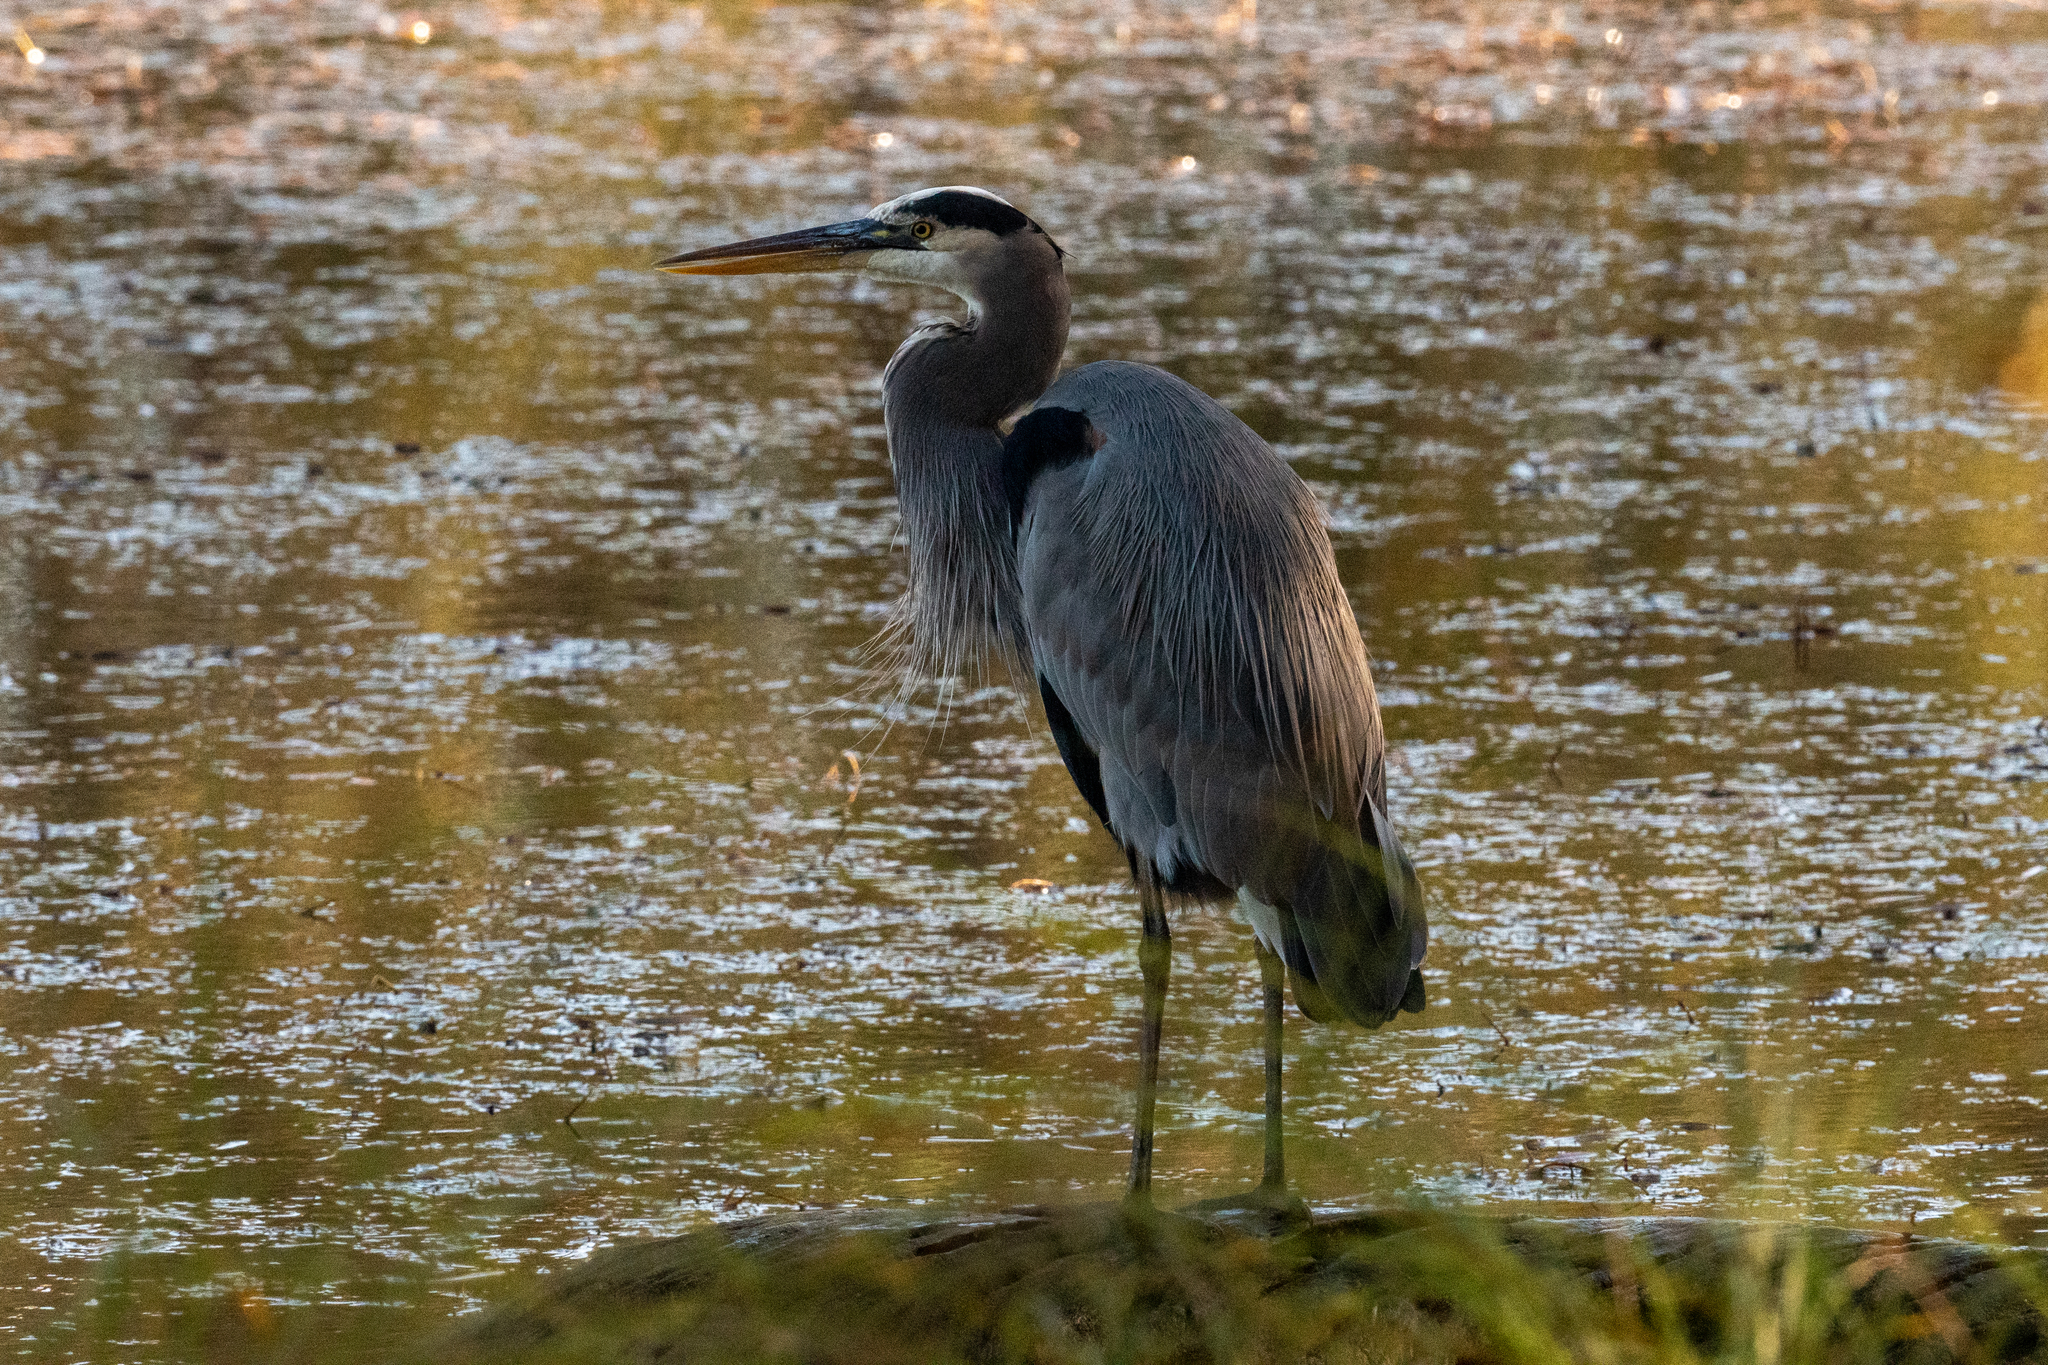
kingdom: Animalia
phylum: Chordata
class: Aves
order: Pelecaniformes
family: Ardeidae
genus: Ardea
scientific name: Ardea herodias
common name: Great blue heron
